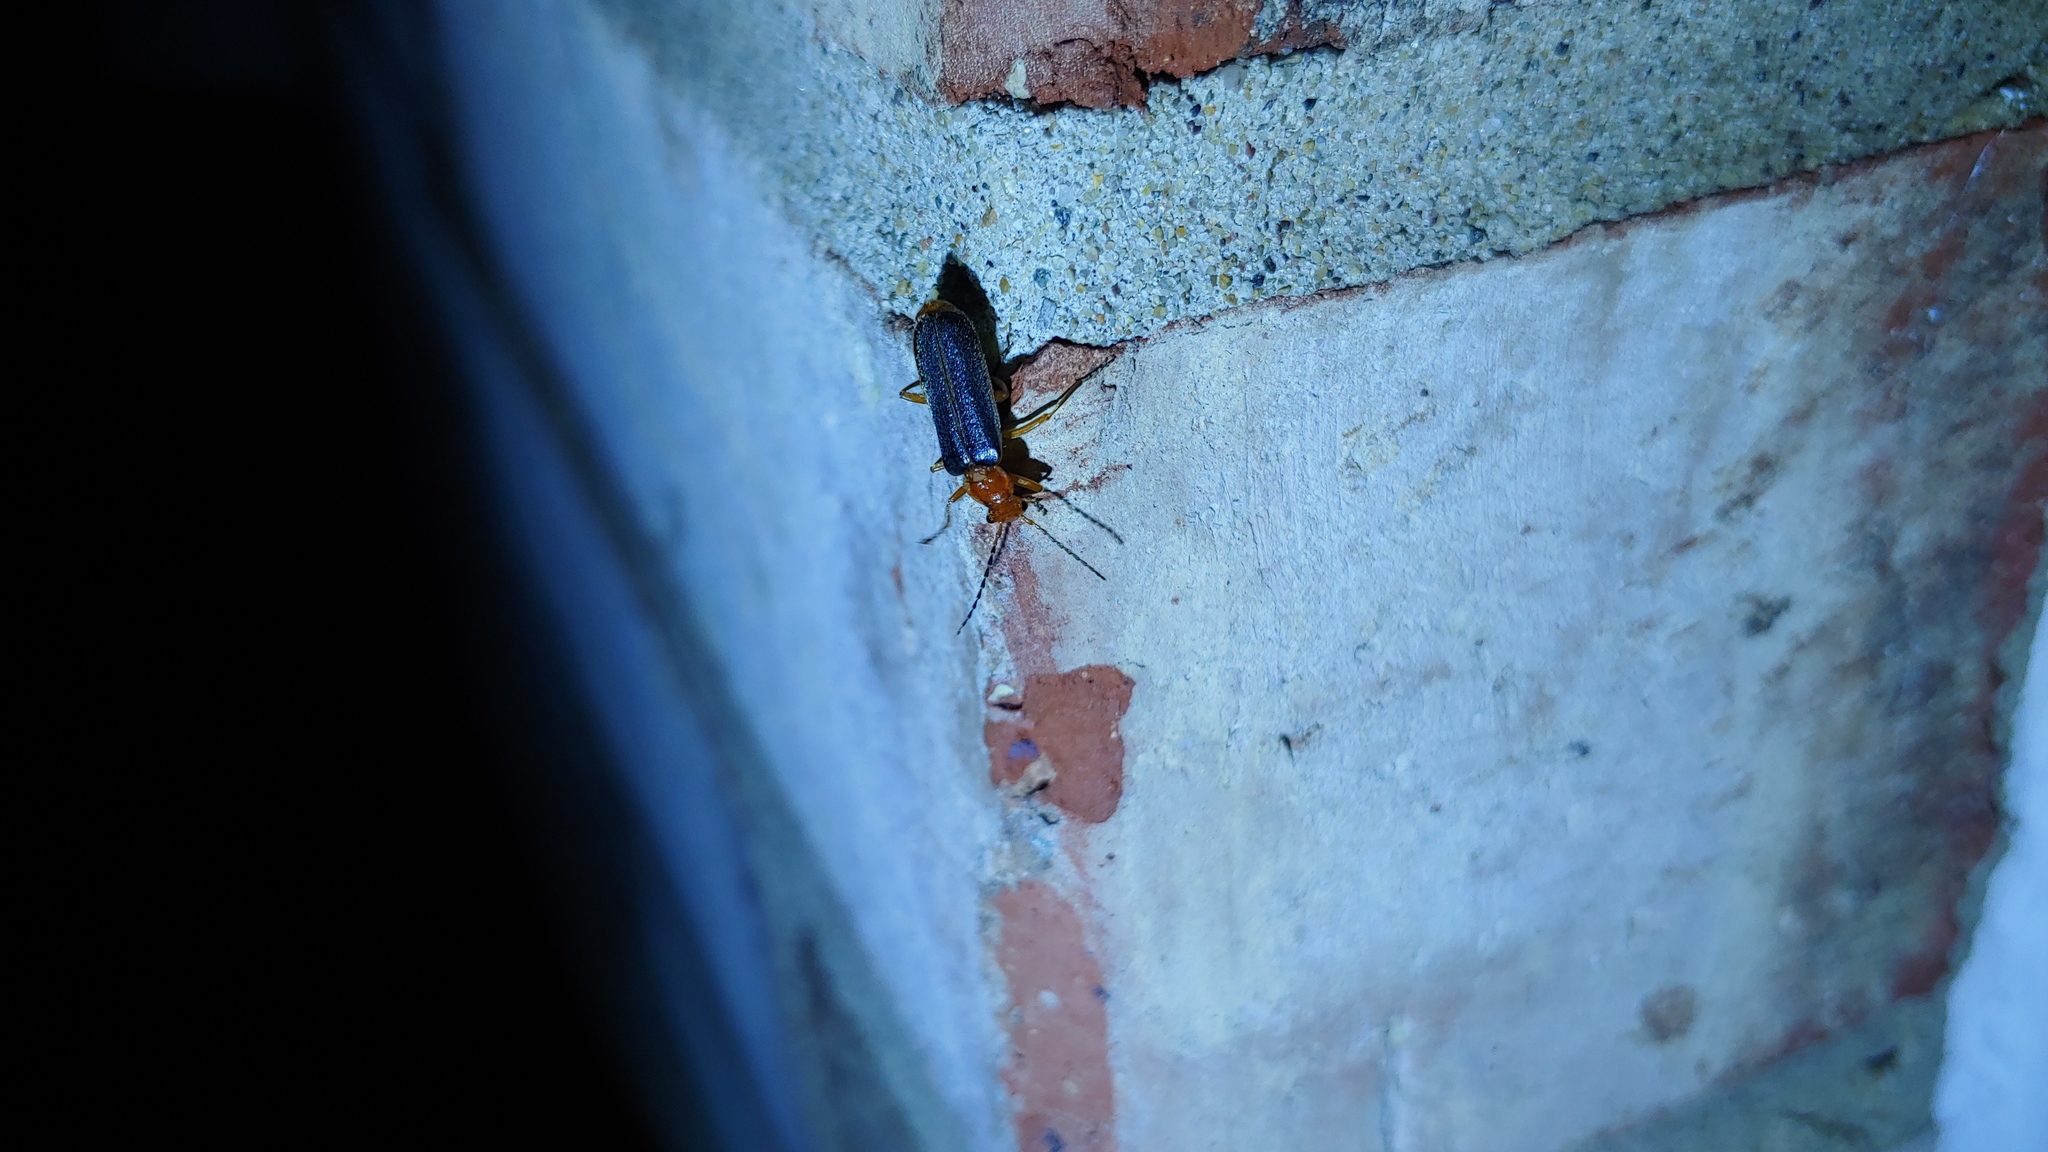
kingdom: Animalia
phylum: Arthropoda
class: Insecta
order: Coleoptera
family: Cantharidae
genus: Podabrus
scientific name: Podabrus tomentosus
